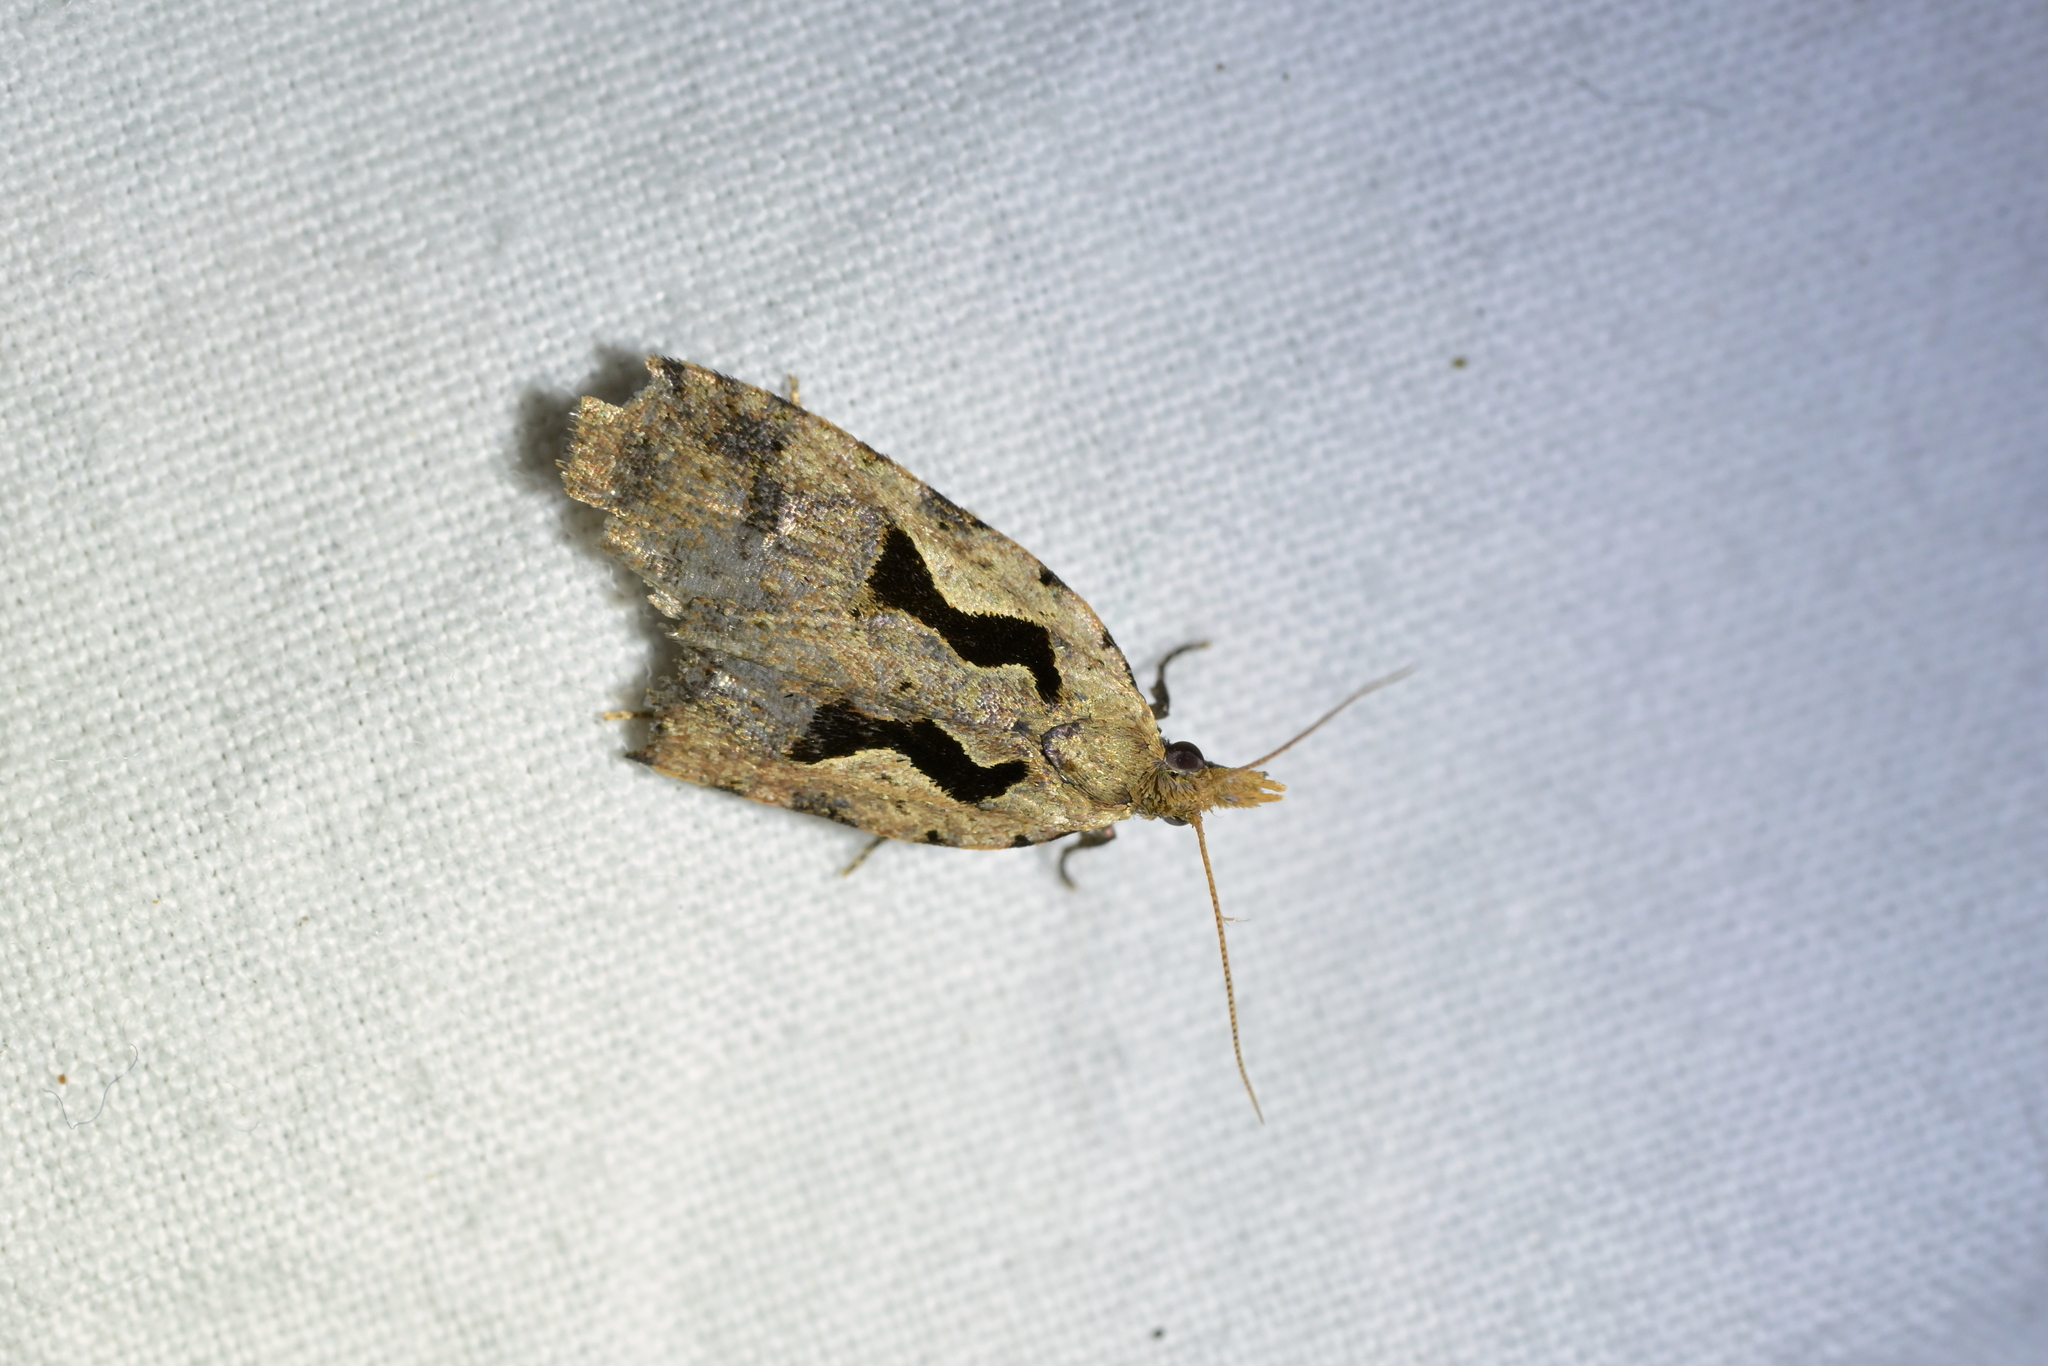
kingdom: Animalia
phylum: Arthropoda
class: Insecta
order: Lepidoptera
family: Tortricidae
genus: Cnephasia
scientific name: Cnephasia jactatana
